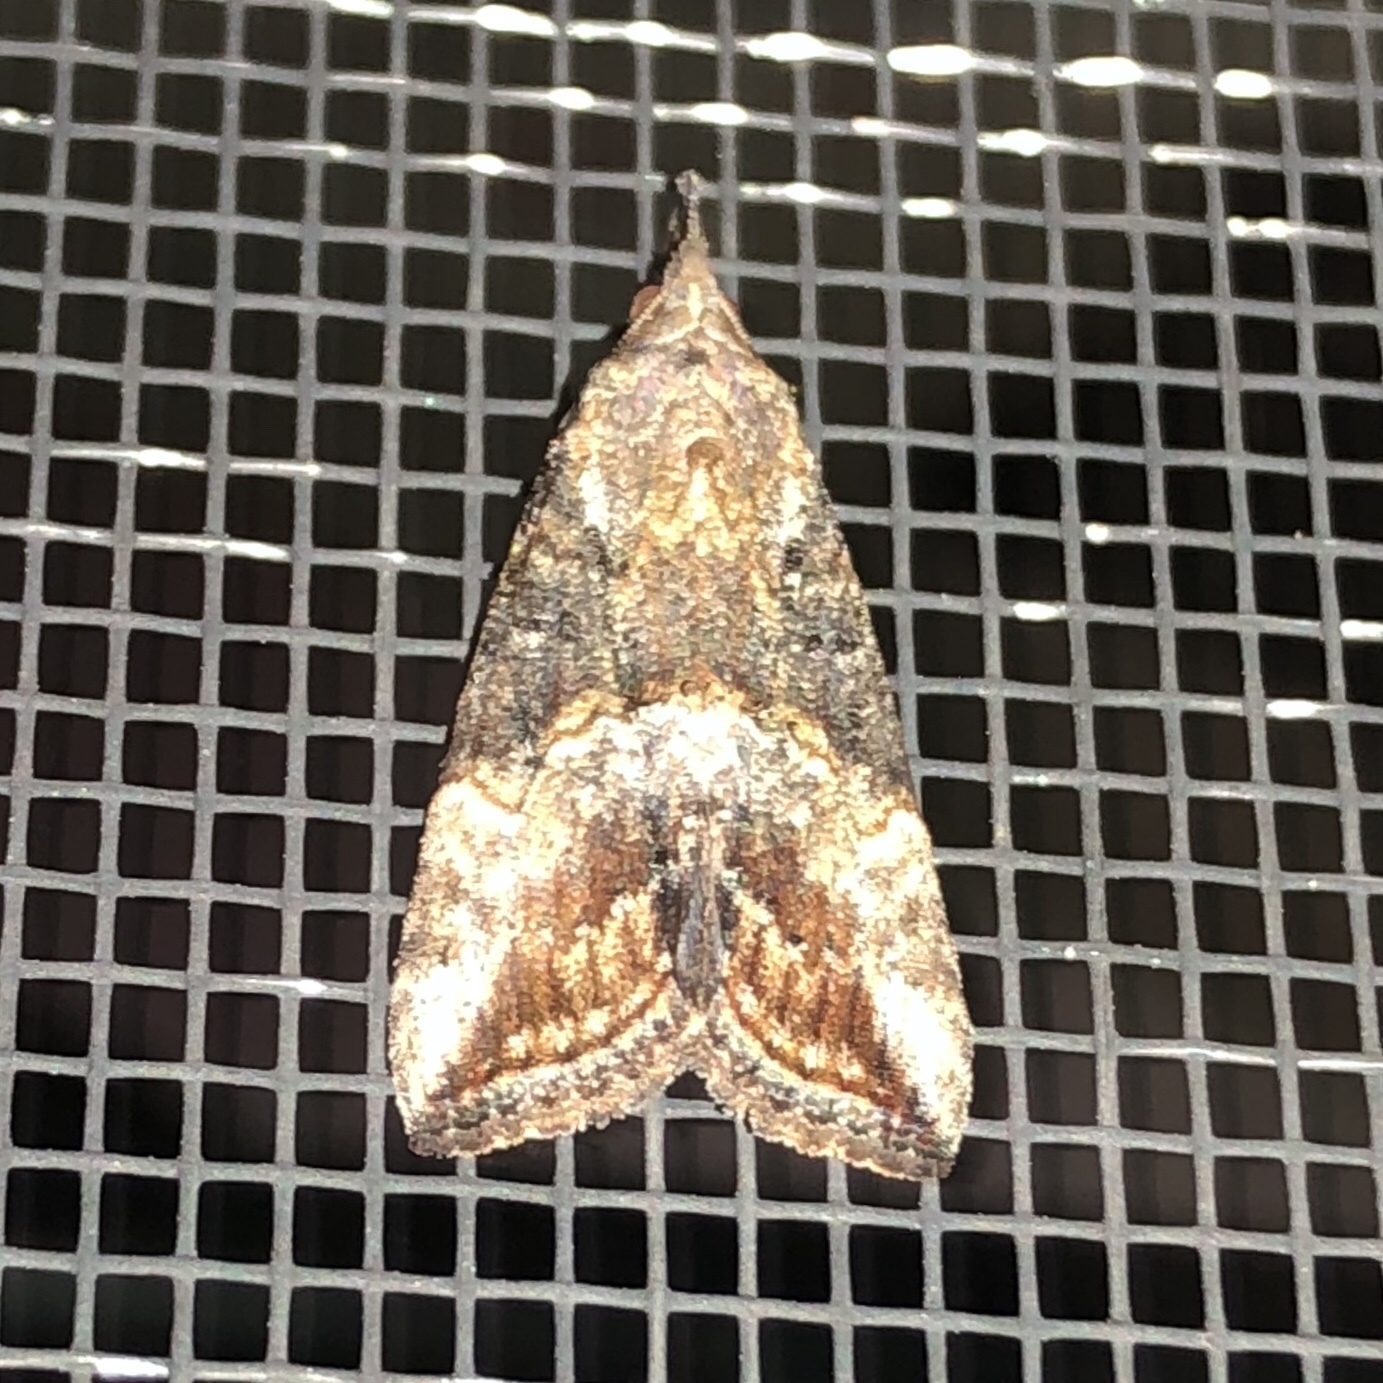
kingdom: Animalia
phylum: Arthropoda
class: Insecta
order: Lepidoptera
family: Erebidae
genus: Hypena
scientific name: Hypena scabra
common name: Green cloverworm
